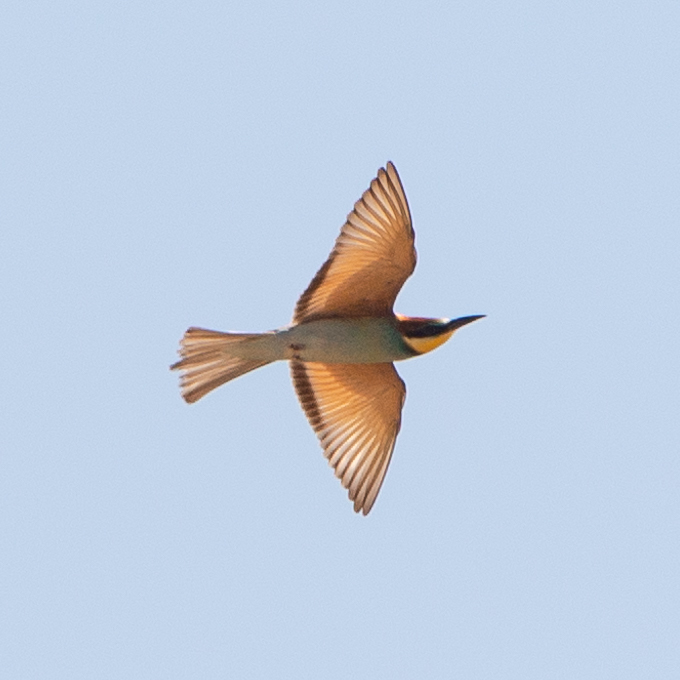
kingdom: Animalia
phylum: Chordata
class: Aves
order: Coraciiformes
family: Meropidae
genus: Merops
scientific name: Merops apiaster
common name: European bee-eater
